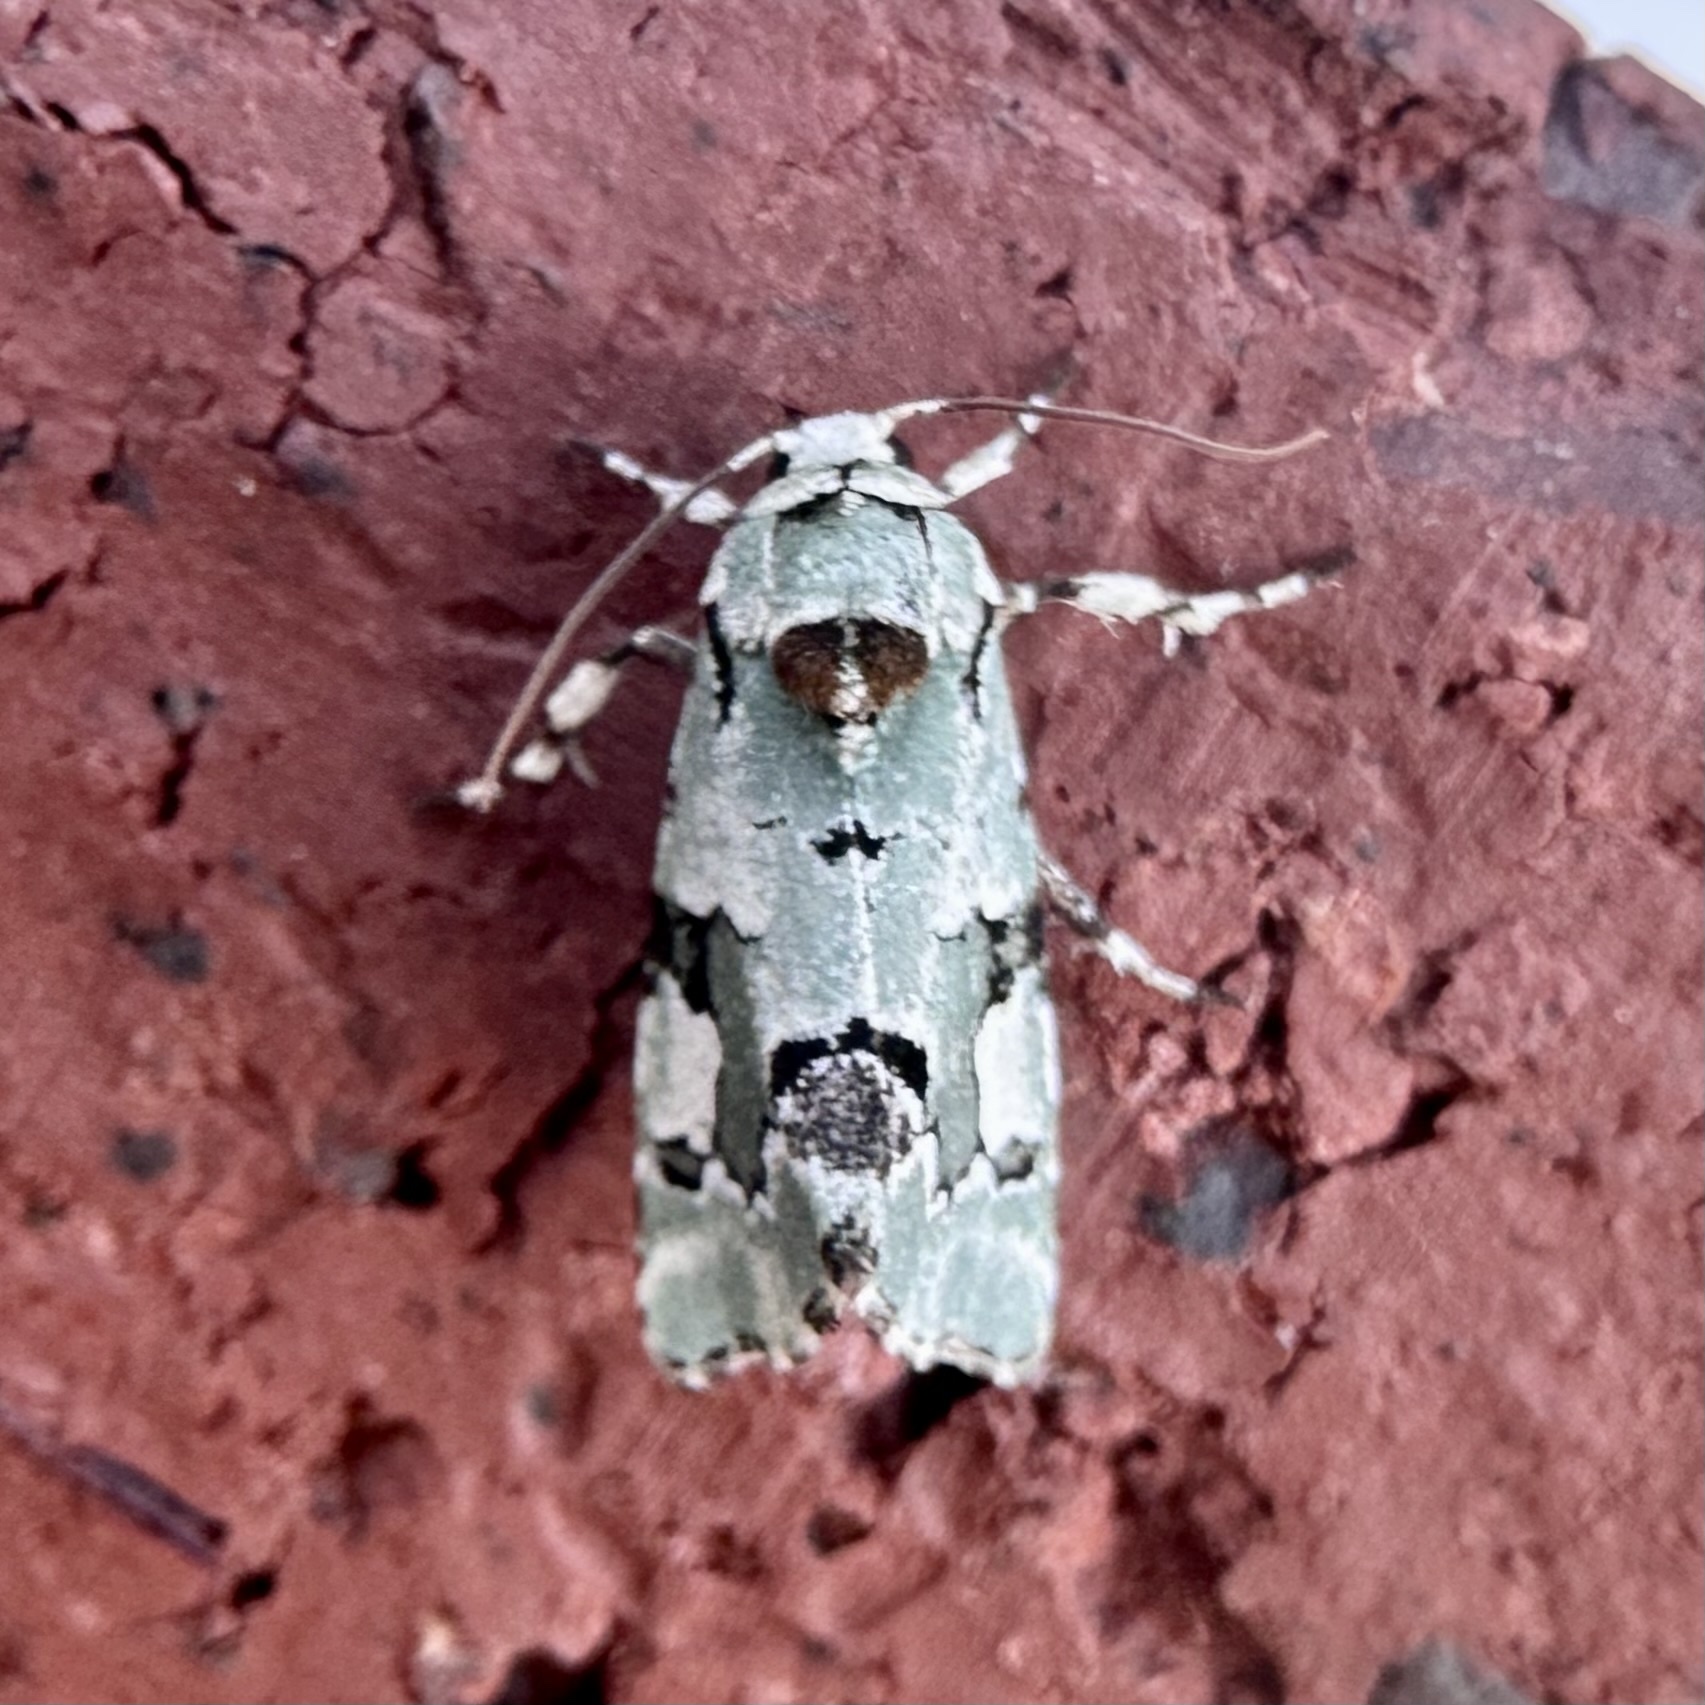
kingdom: Animalia
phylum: Arthropoda
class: Insecta
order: Lepidoptera
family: Noctuidae
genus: Emarginea
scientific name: Emarginea percara
